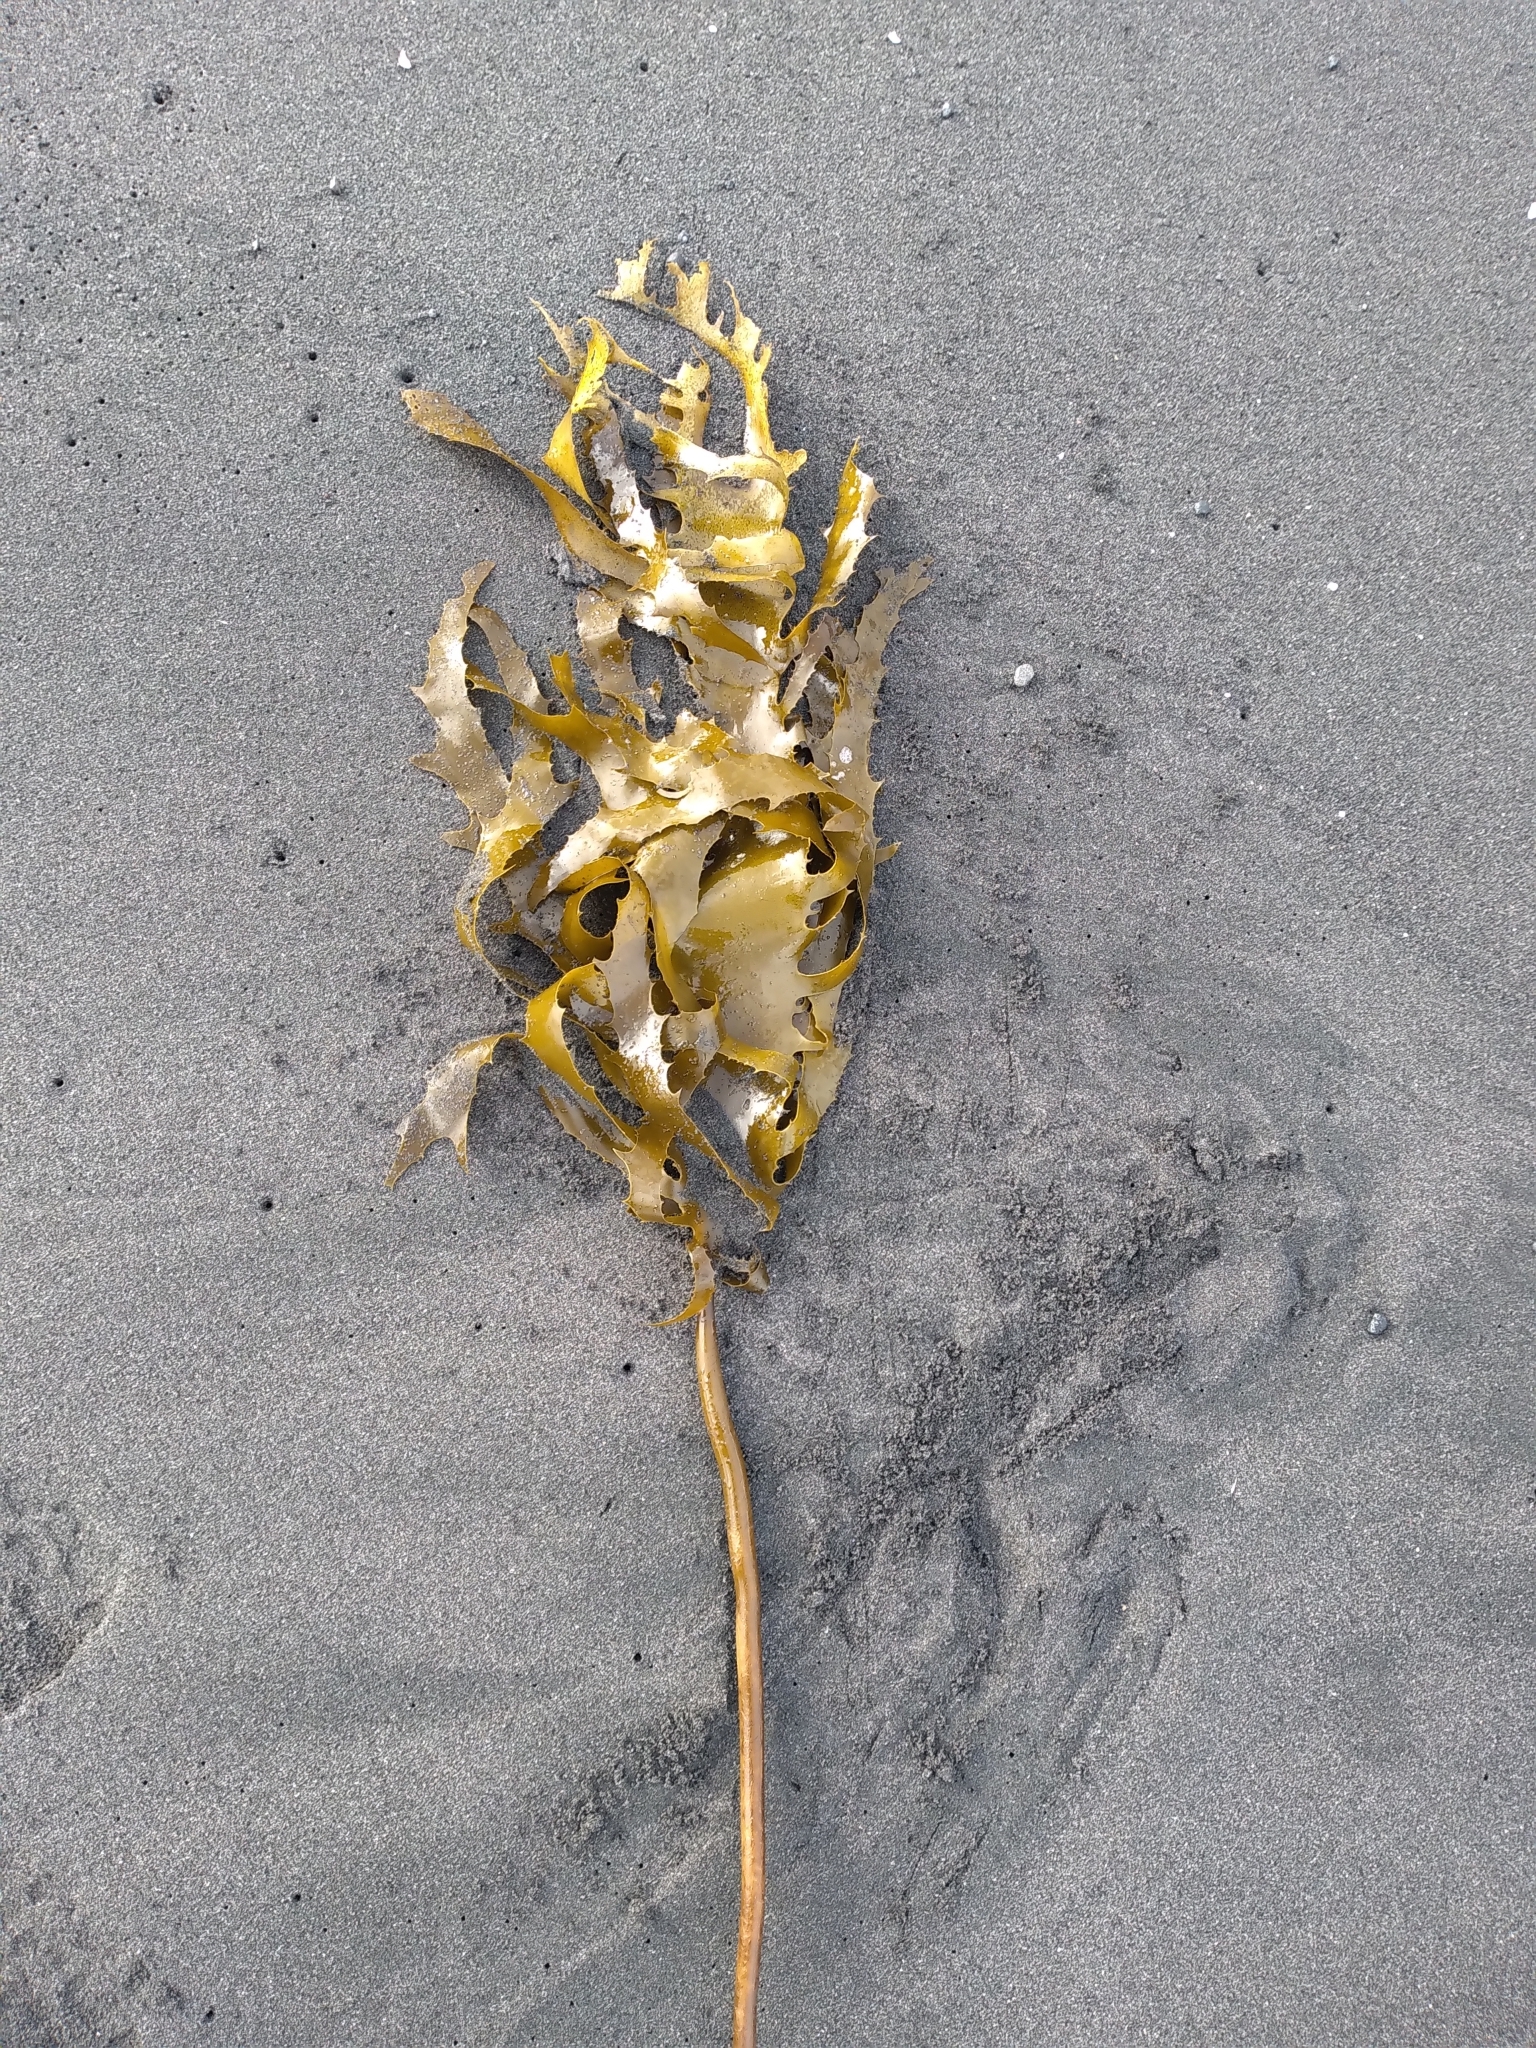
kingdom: Chromista
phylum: Ochrophyta
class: Phaeophyceae
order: Laminariales
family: Lessoniaceae
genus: Ecklonia
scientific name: Ecklonia radiata
